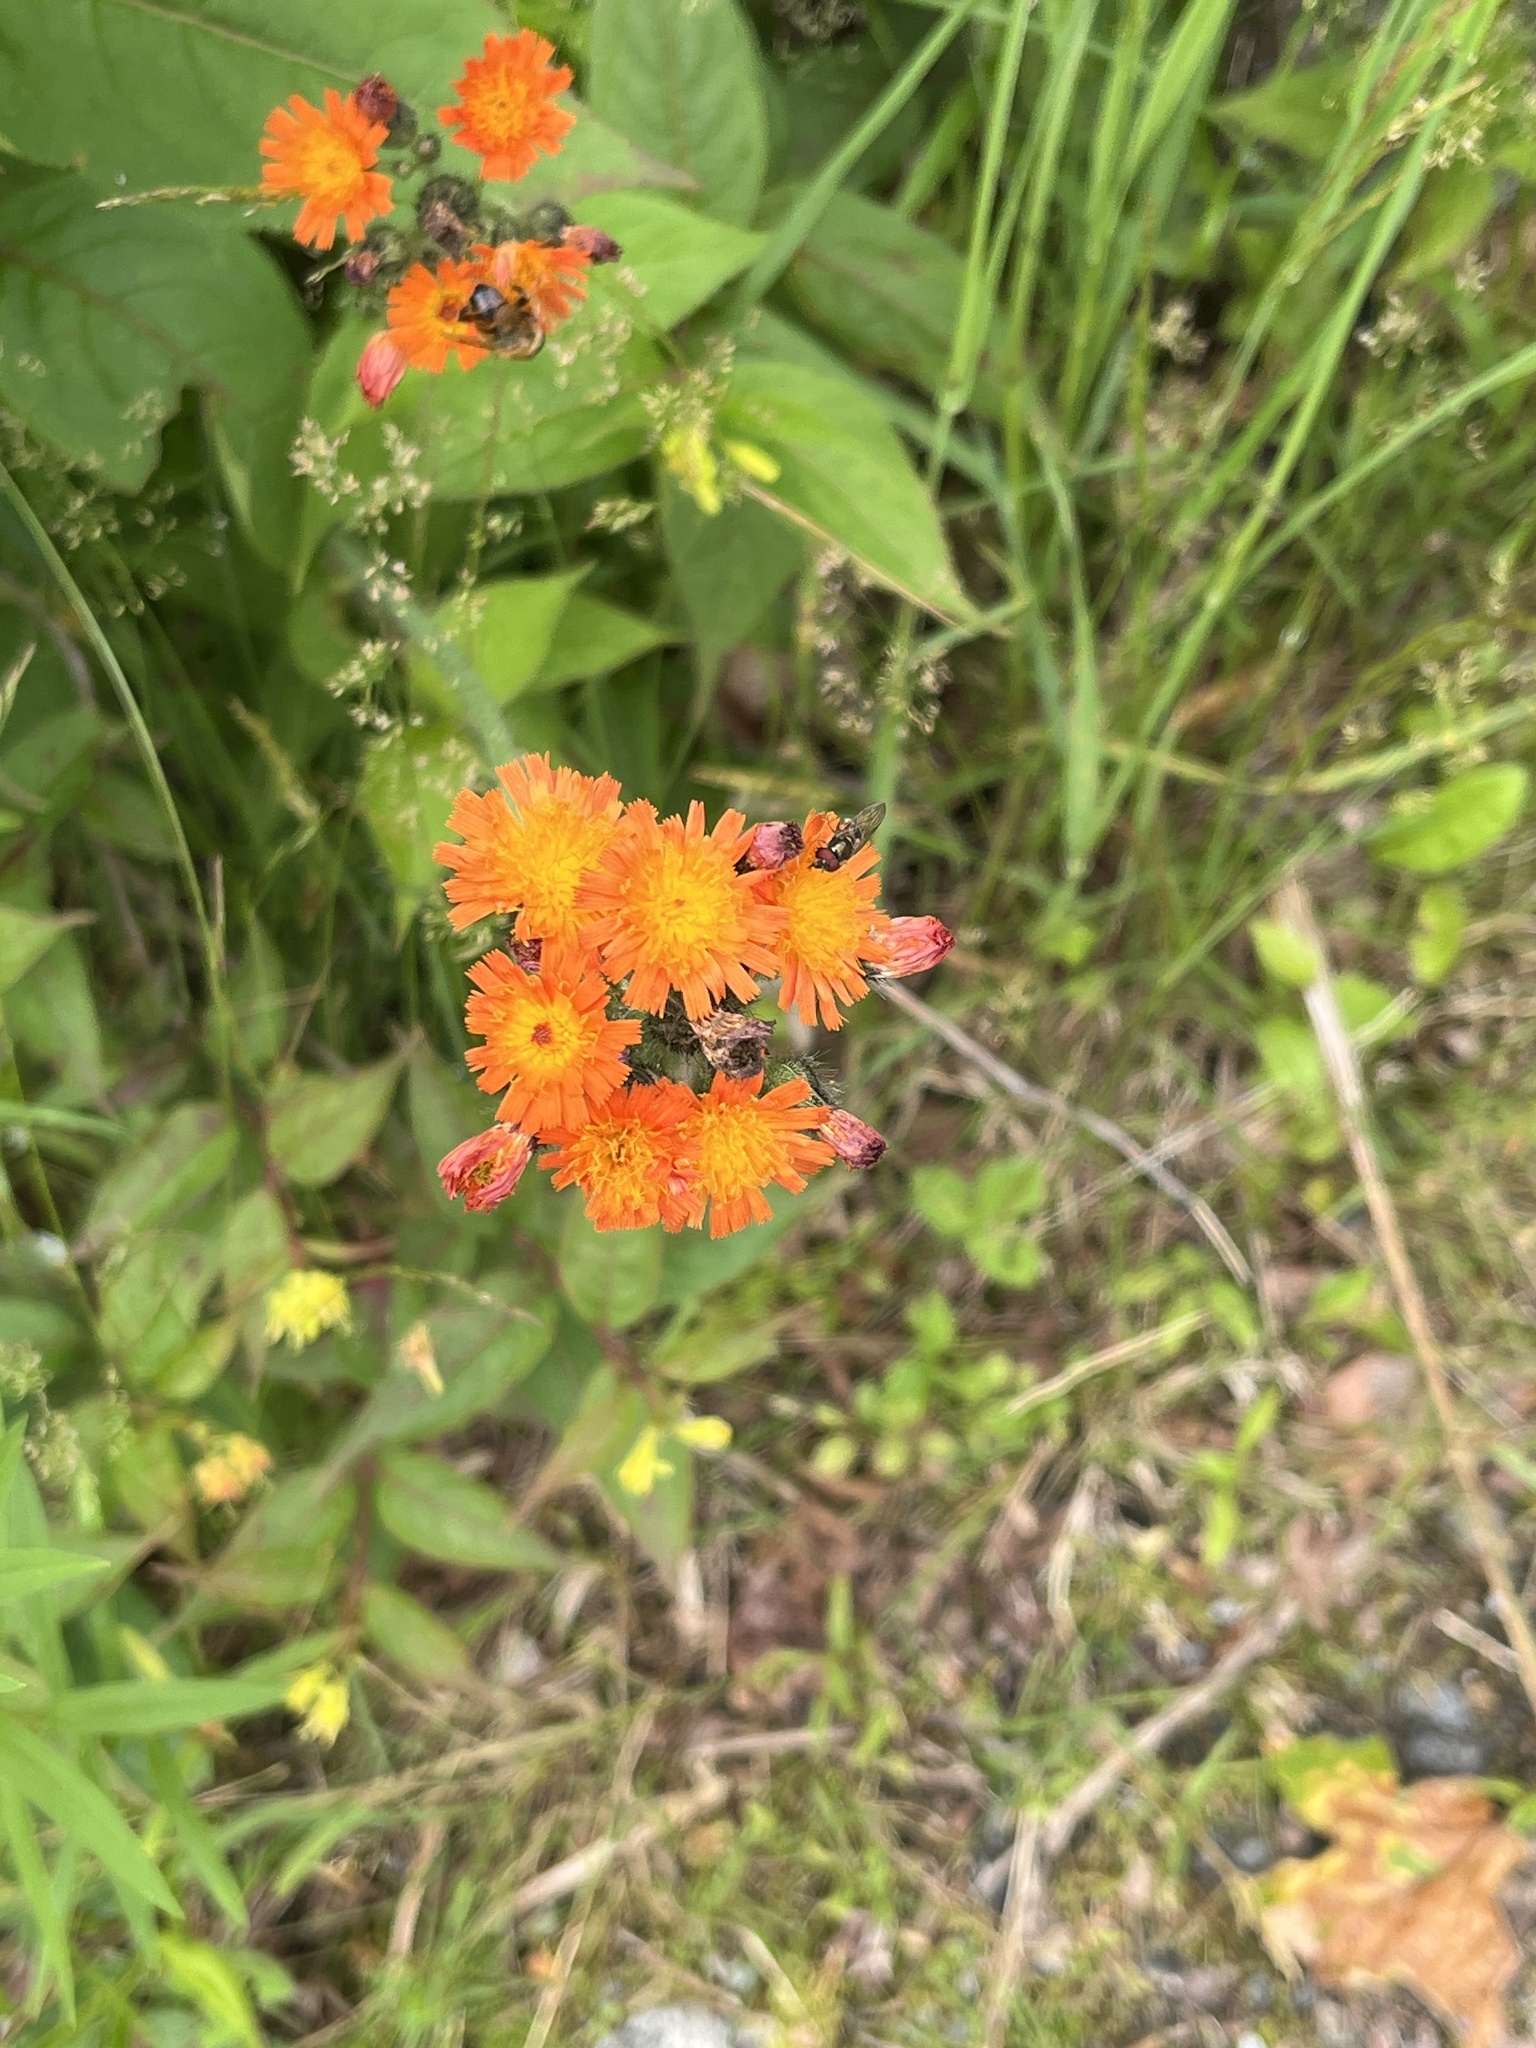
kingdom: Plantae
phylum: Tracheophyta
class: Magnoliopsida
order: Asterales
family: Asteraceae
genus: Pilosella
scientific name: Pilosella aurantiaca
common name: Fox-and-cubs
